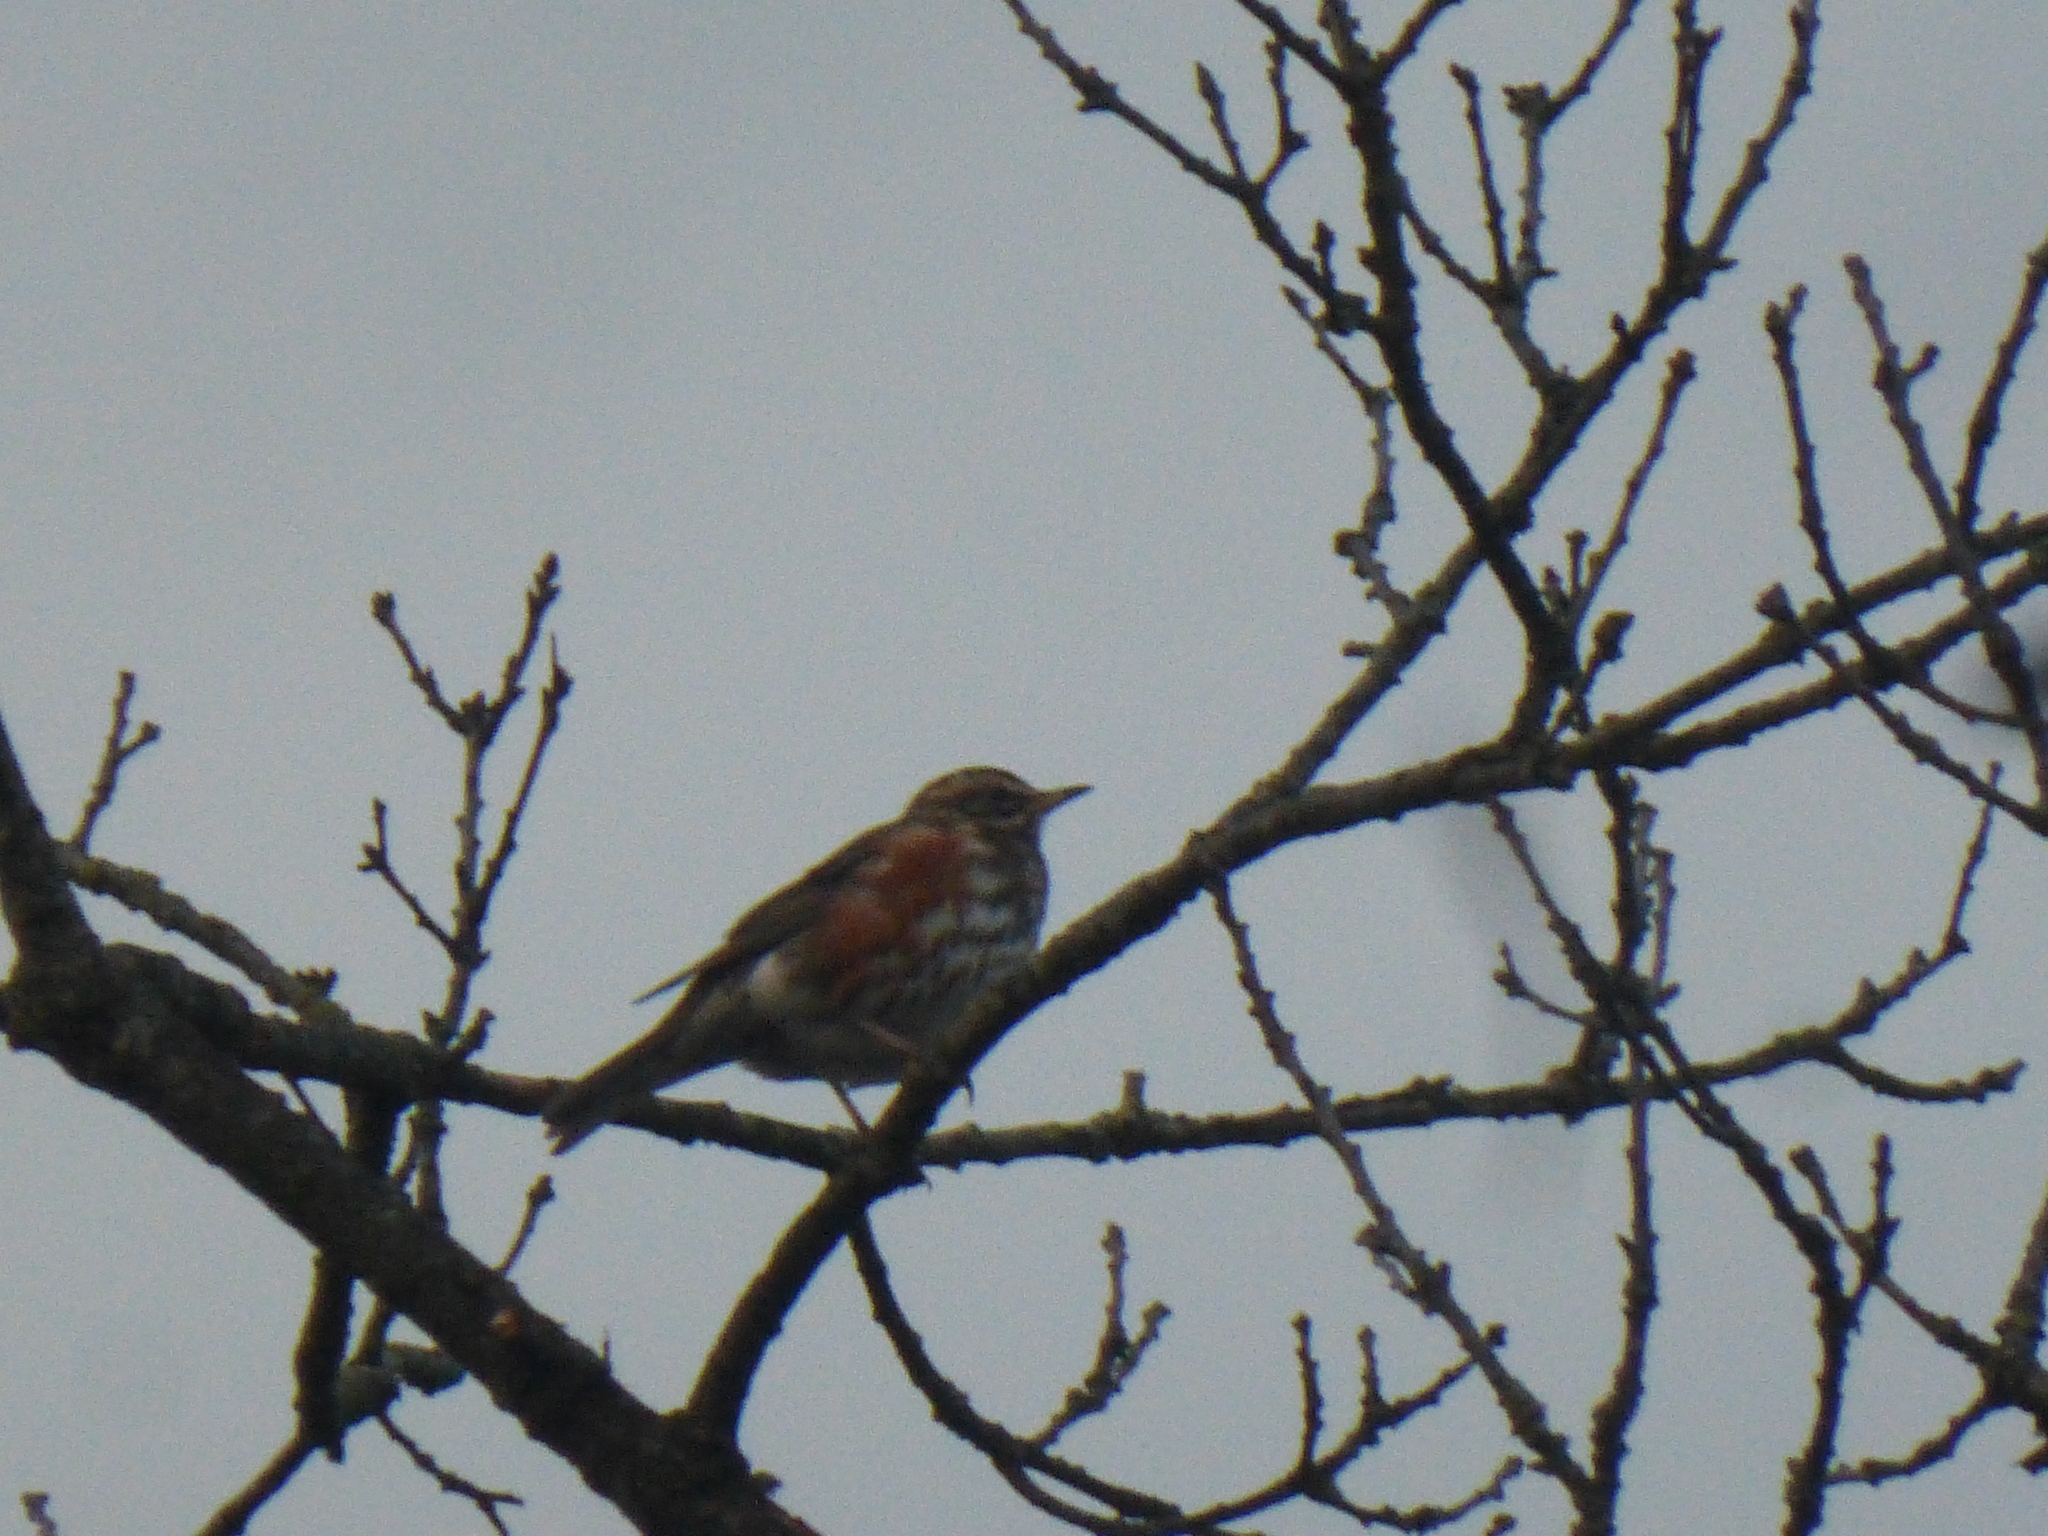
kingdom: Animalia
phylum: Chordata
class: Aves
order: Passeriformes
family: Turdidae
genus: Turdus
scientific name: Turdus iliacus
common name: Redwing
